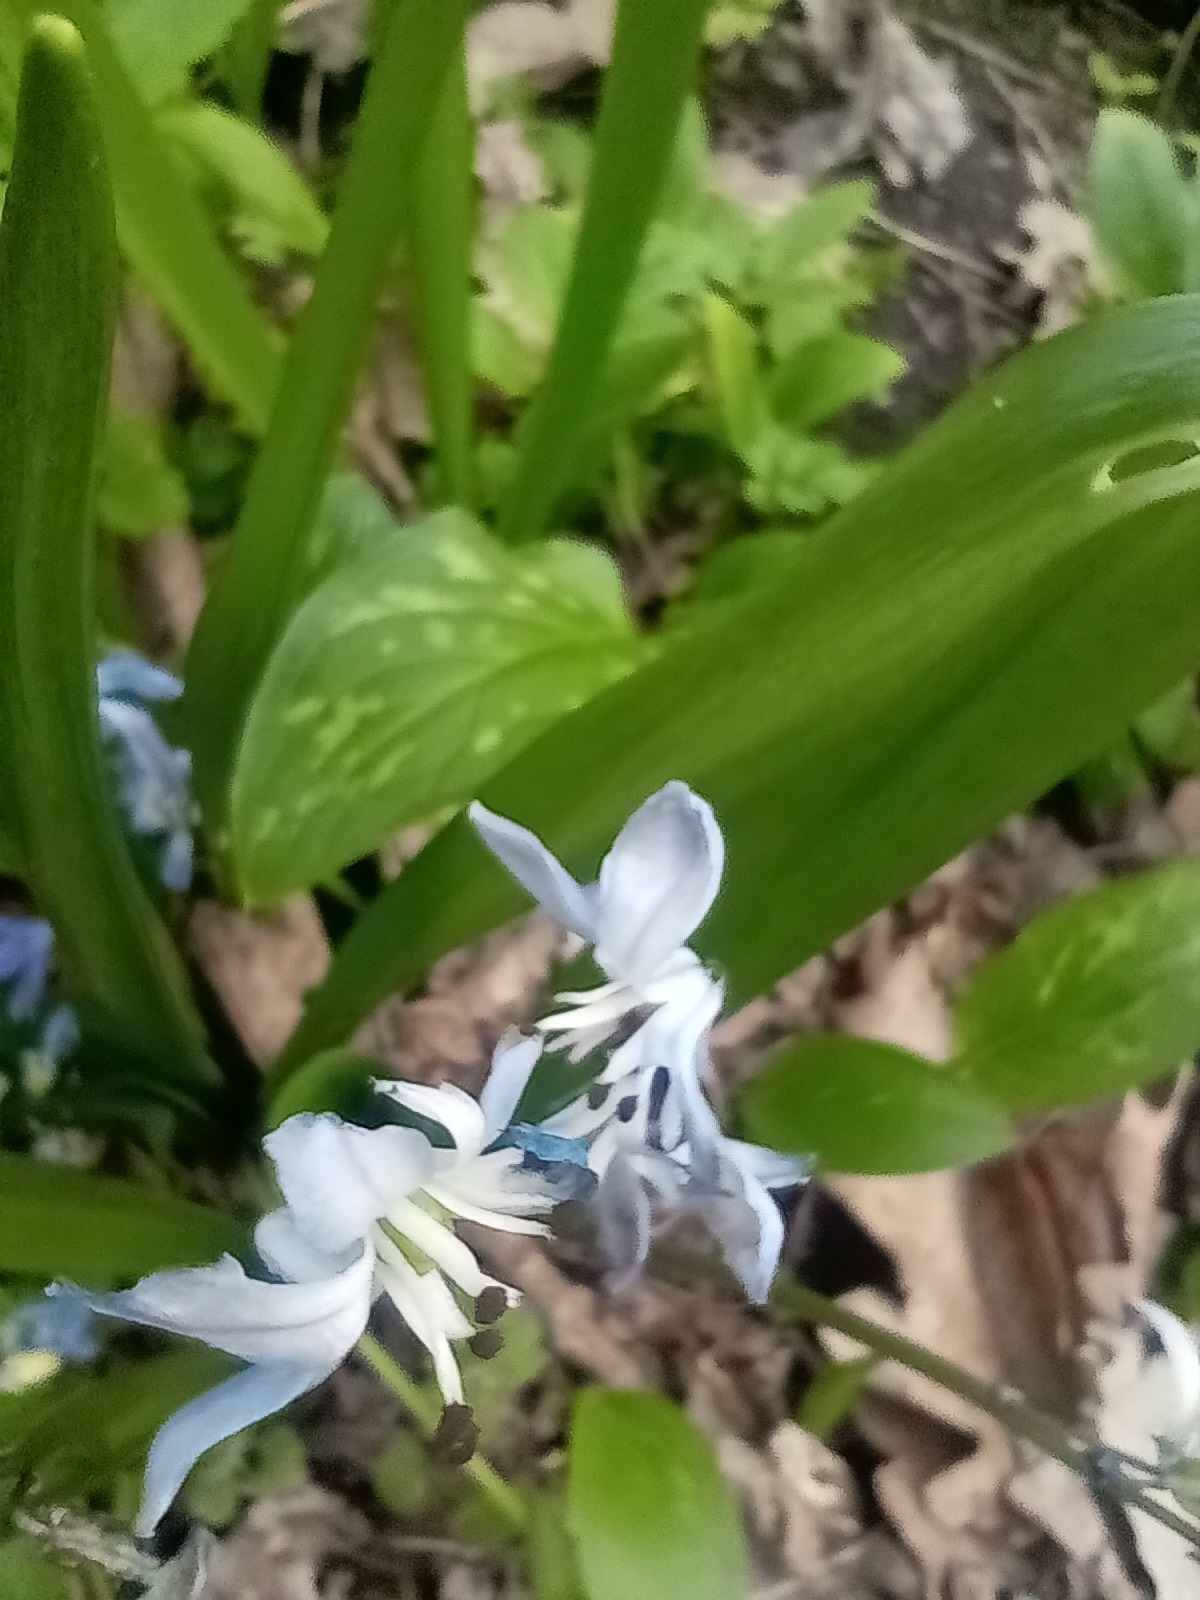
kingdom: Plantae
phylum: Tracheophyta
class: Liliopsida
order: Asparagales
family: Asparagaceae
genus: Scilla
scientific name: Scilla siberica
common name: Siberian squill
